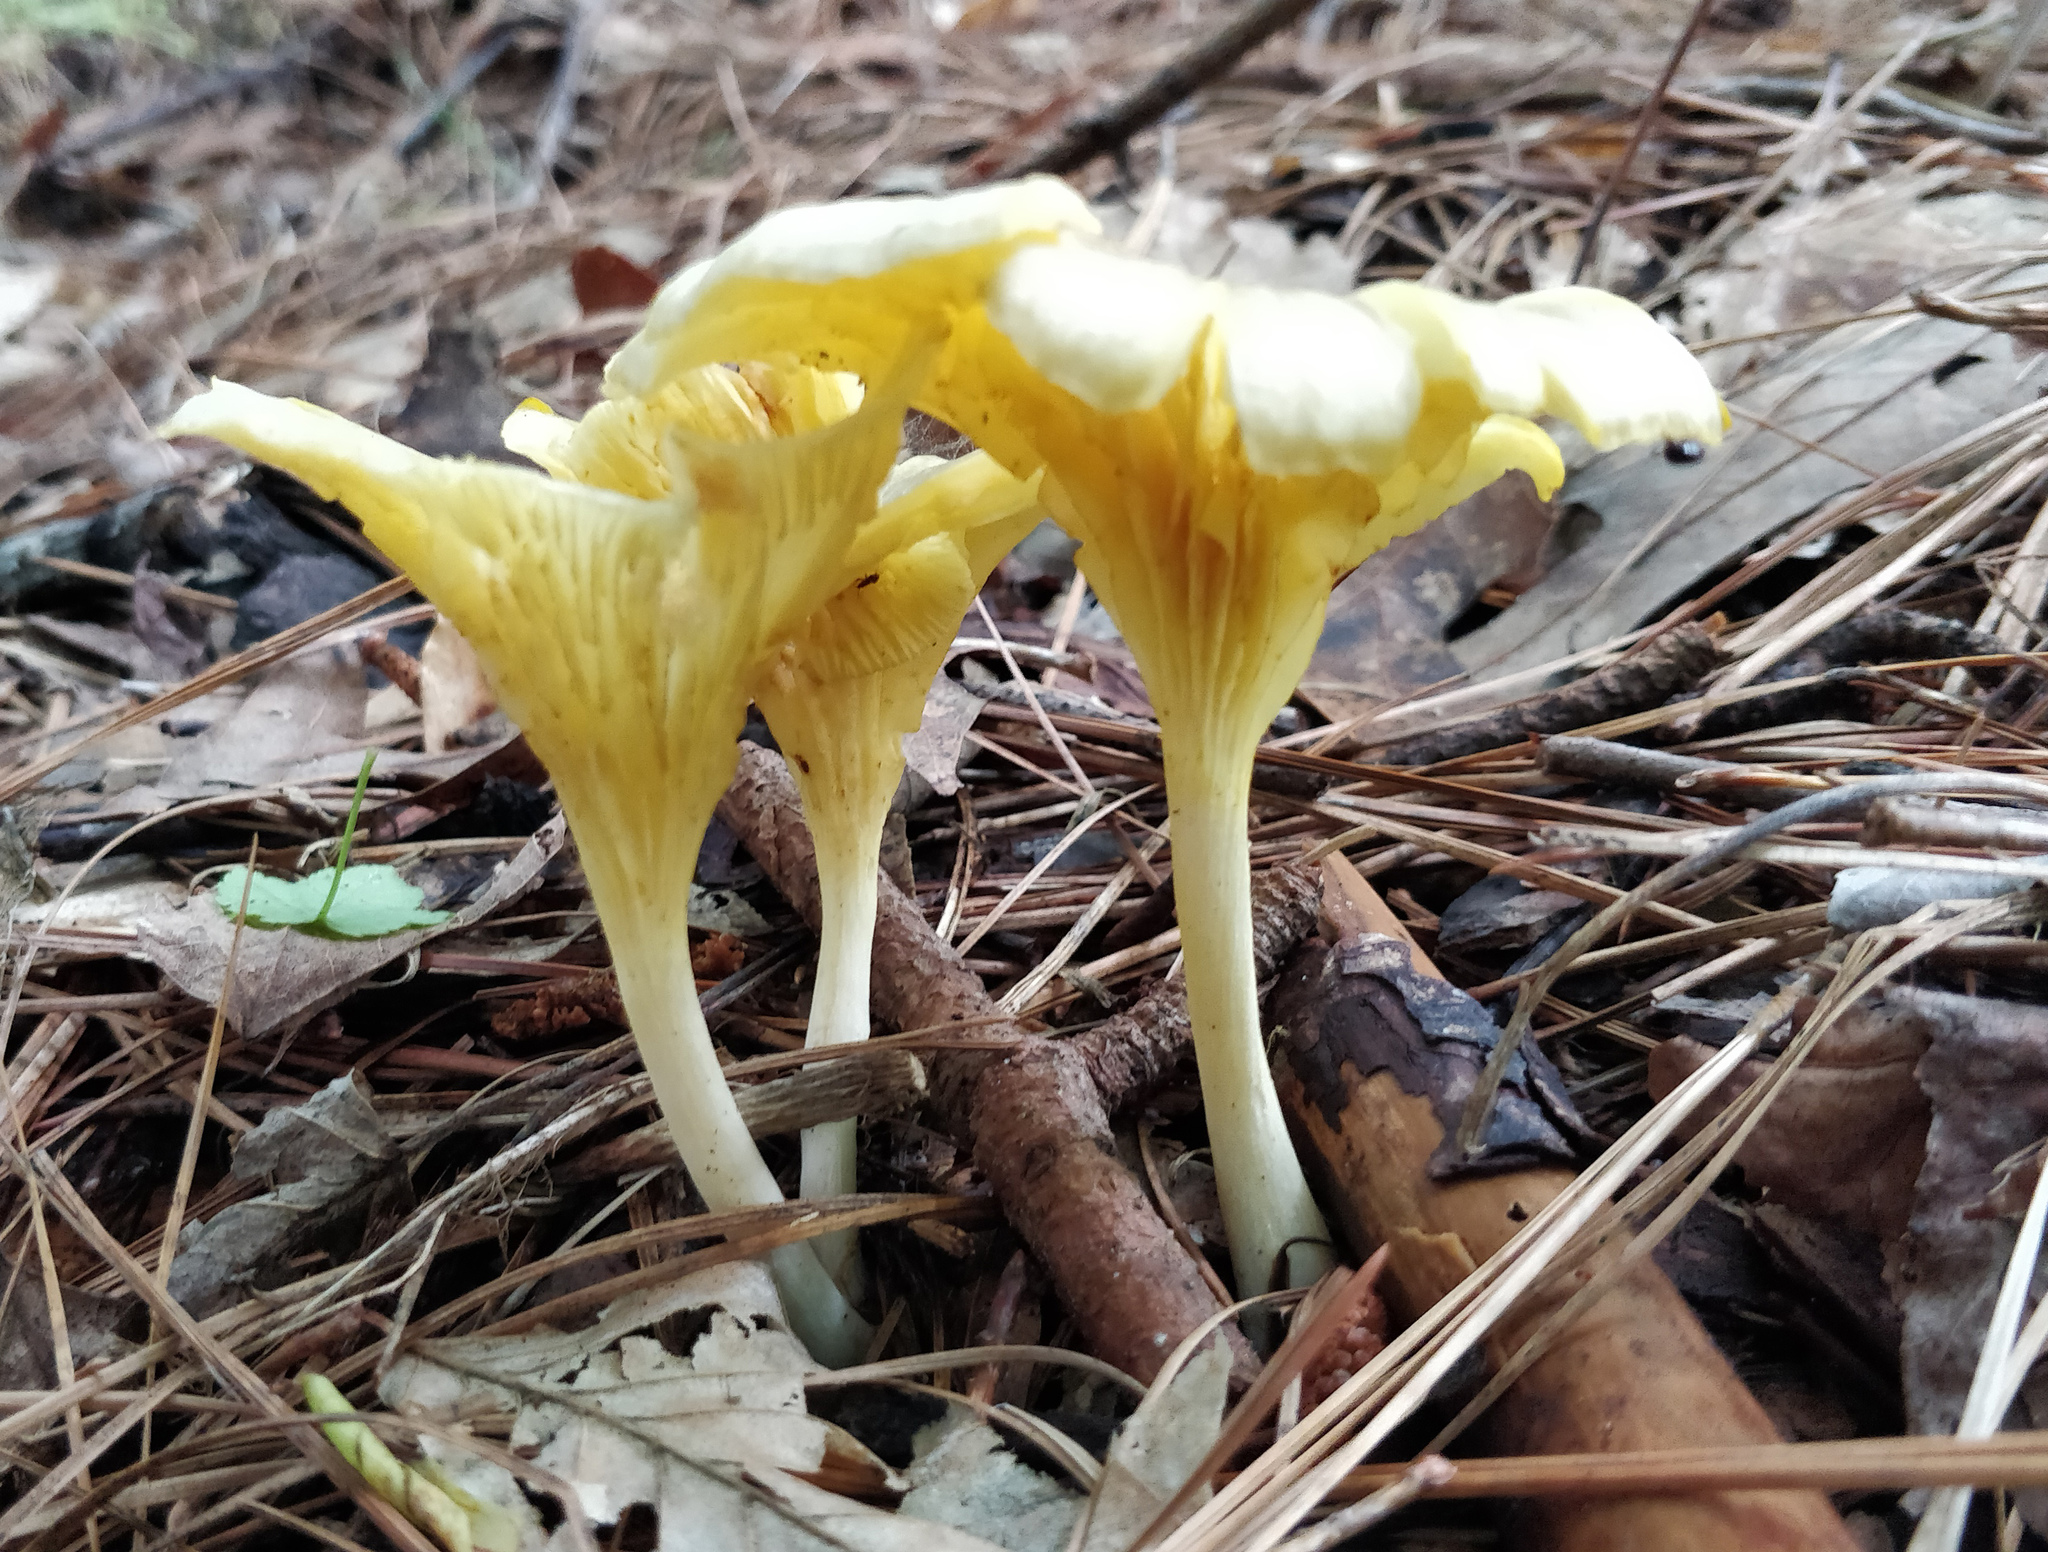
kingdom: Fungi
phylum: Basidiomycota
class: Agaricomycetes
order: Agaricales
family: Marasmiaceae
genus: Gerronema
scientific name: Gerronema strombodes
